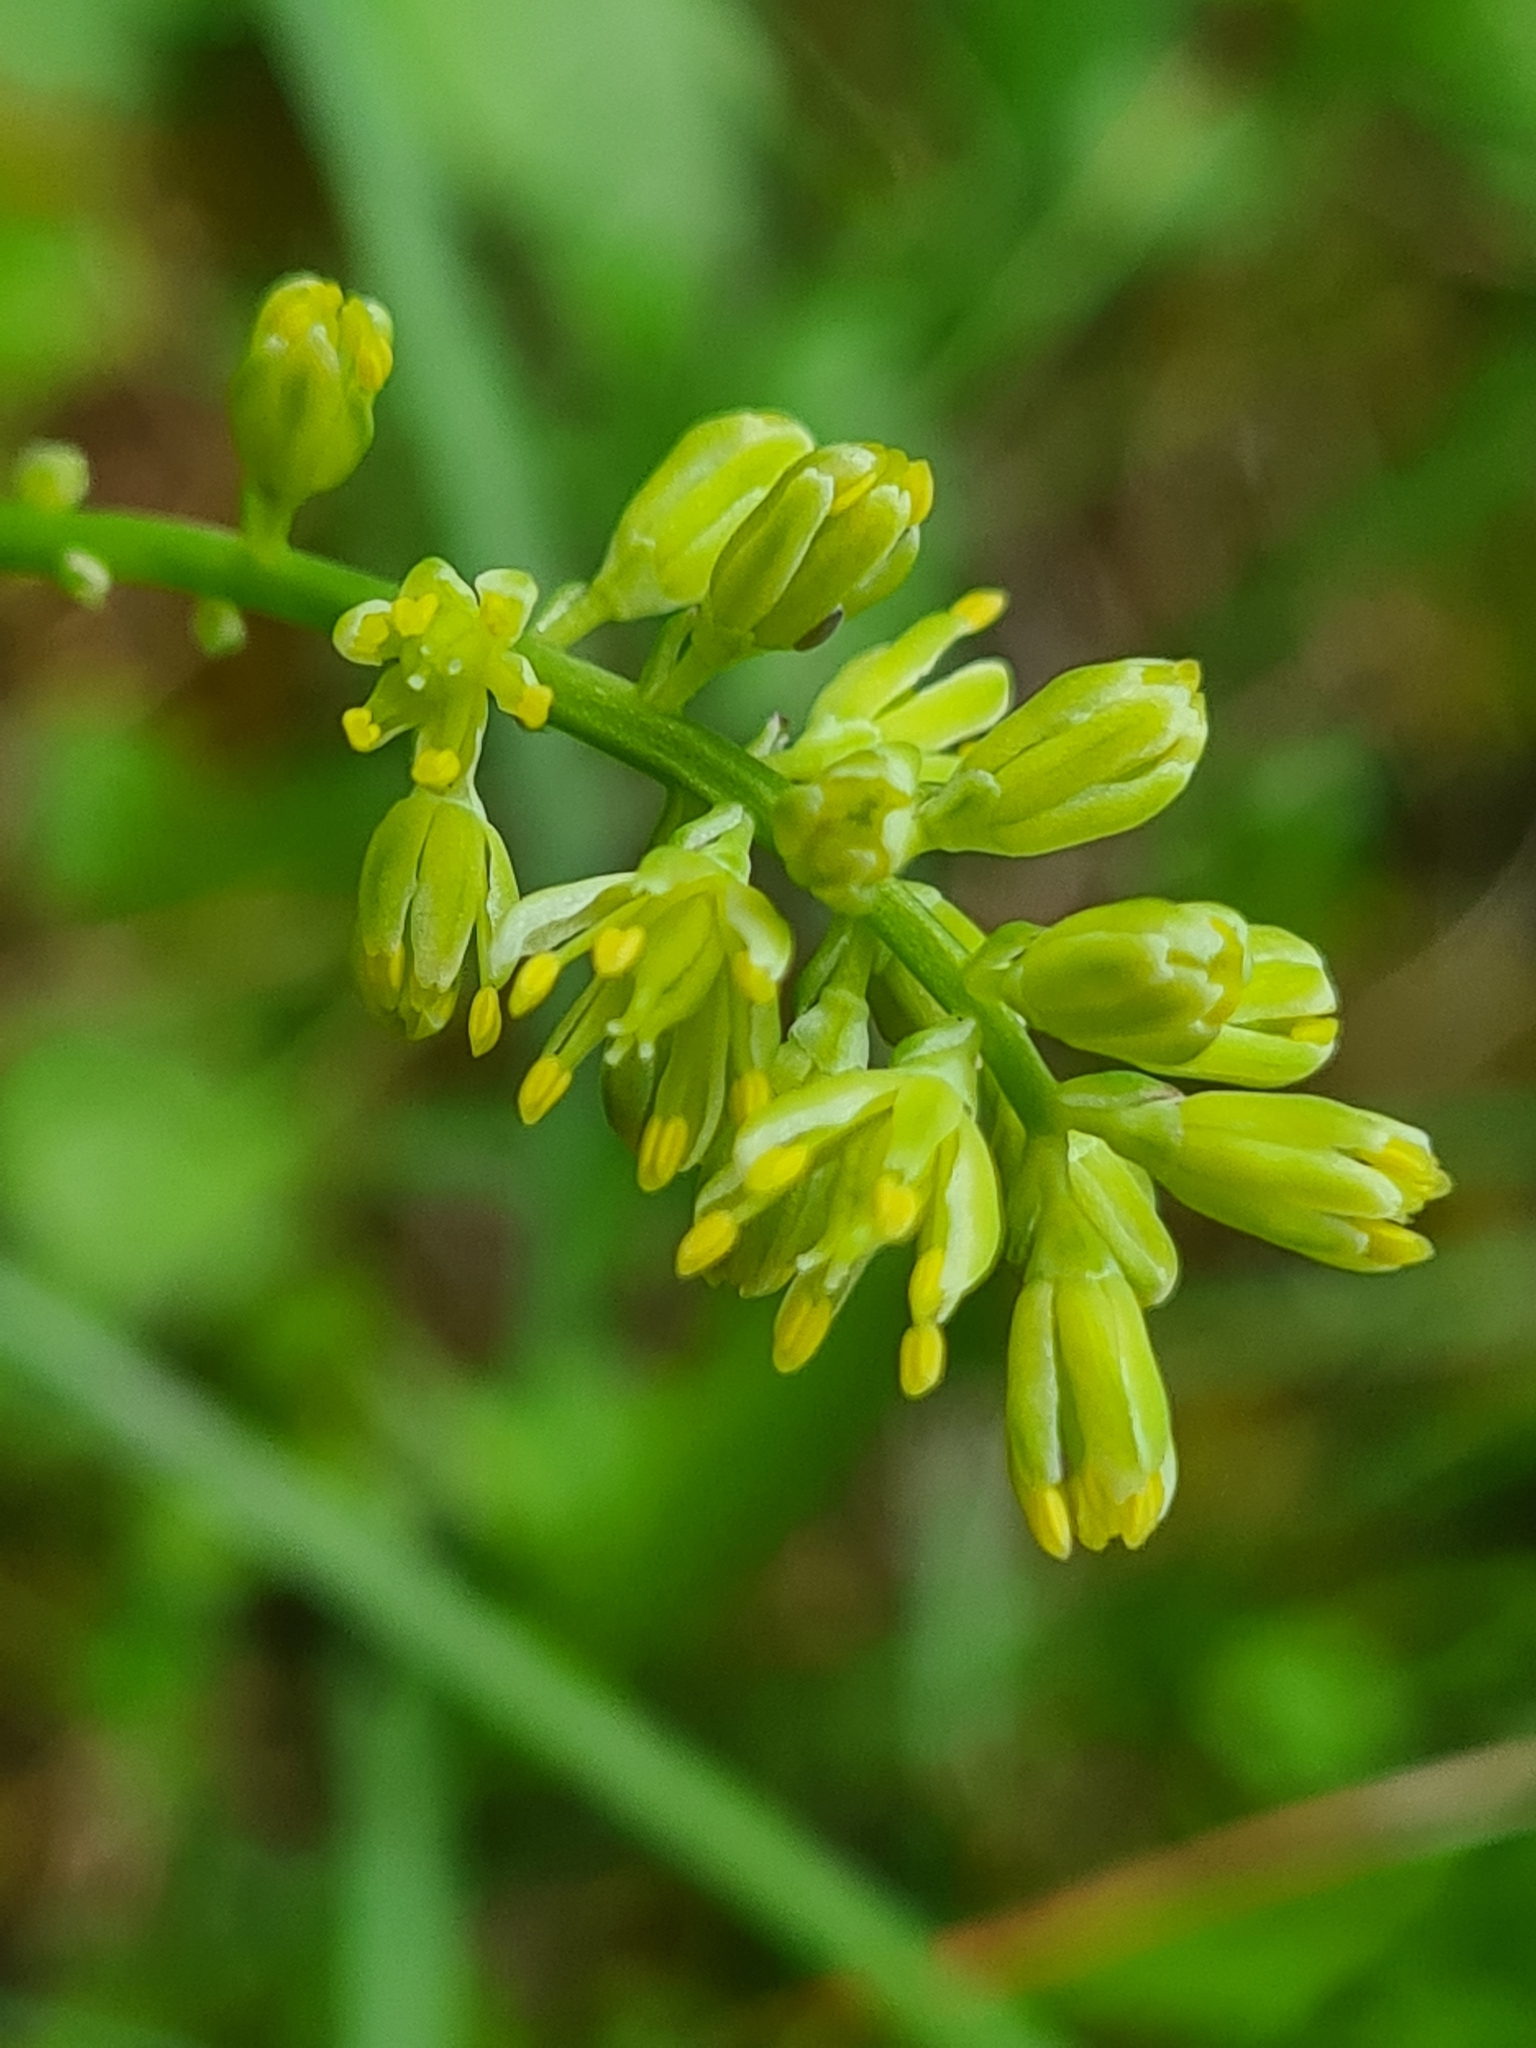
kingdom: Plantae
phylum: Tracheophyta
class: Liliopsida
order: Alismatales
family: Tofieldiaceae
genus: Tofieldia
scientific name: Tofieldia calyculata
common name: German-asphodel
